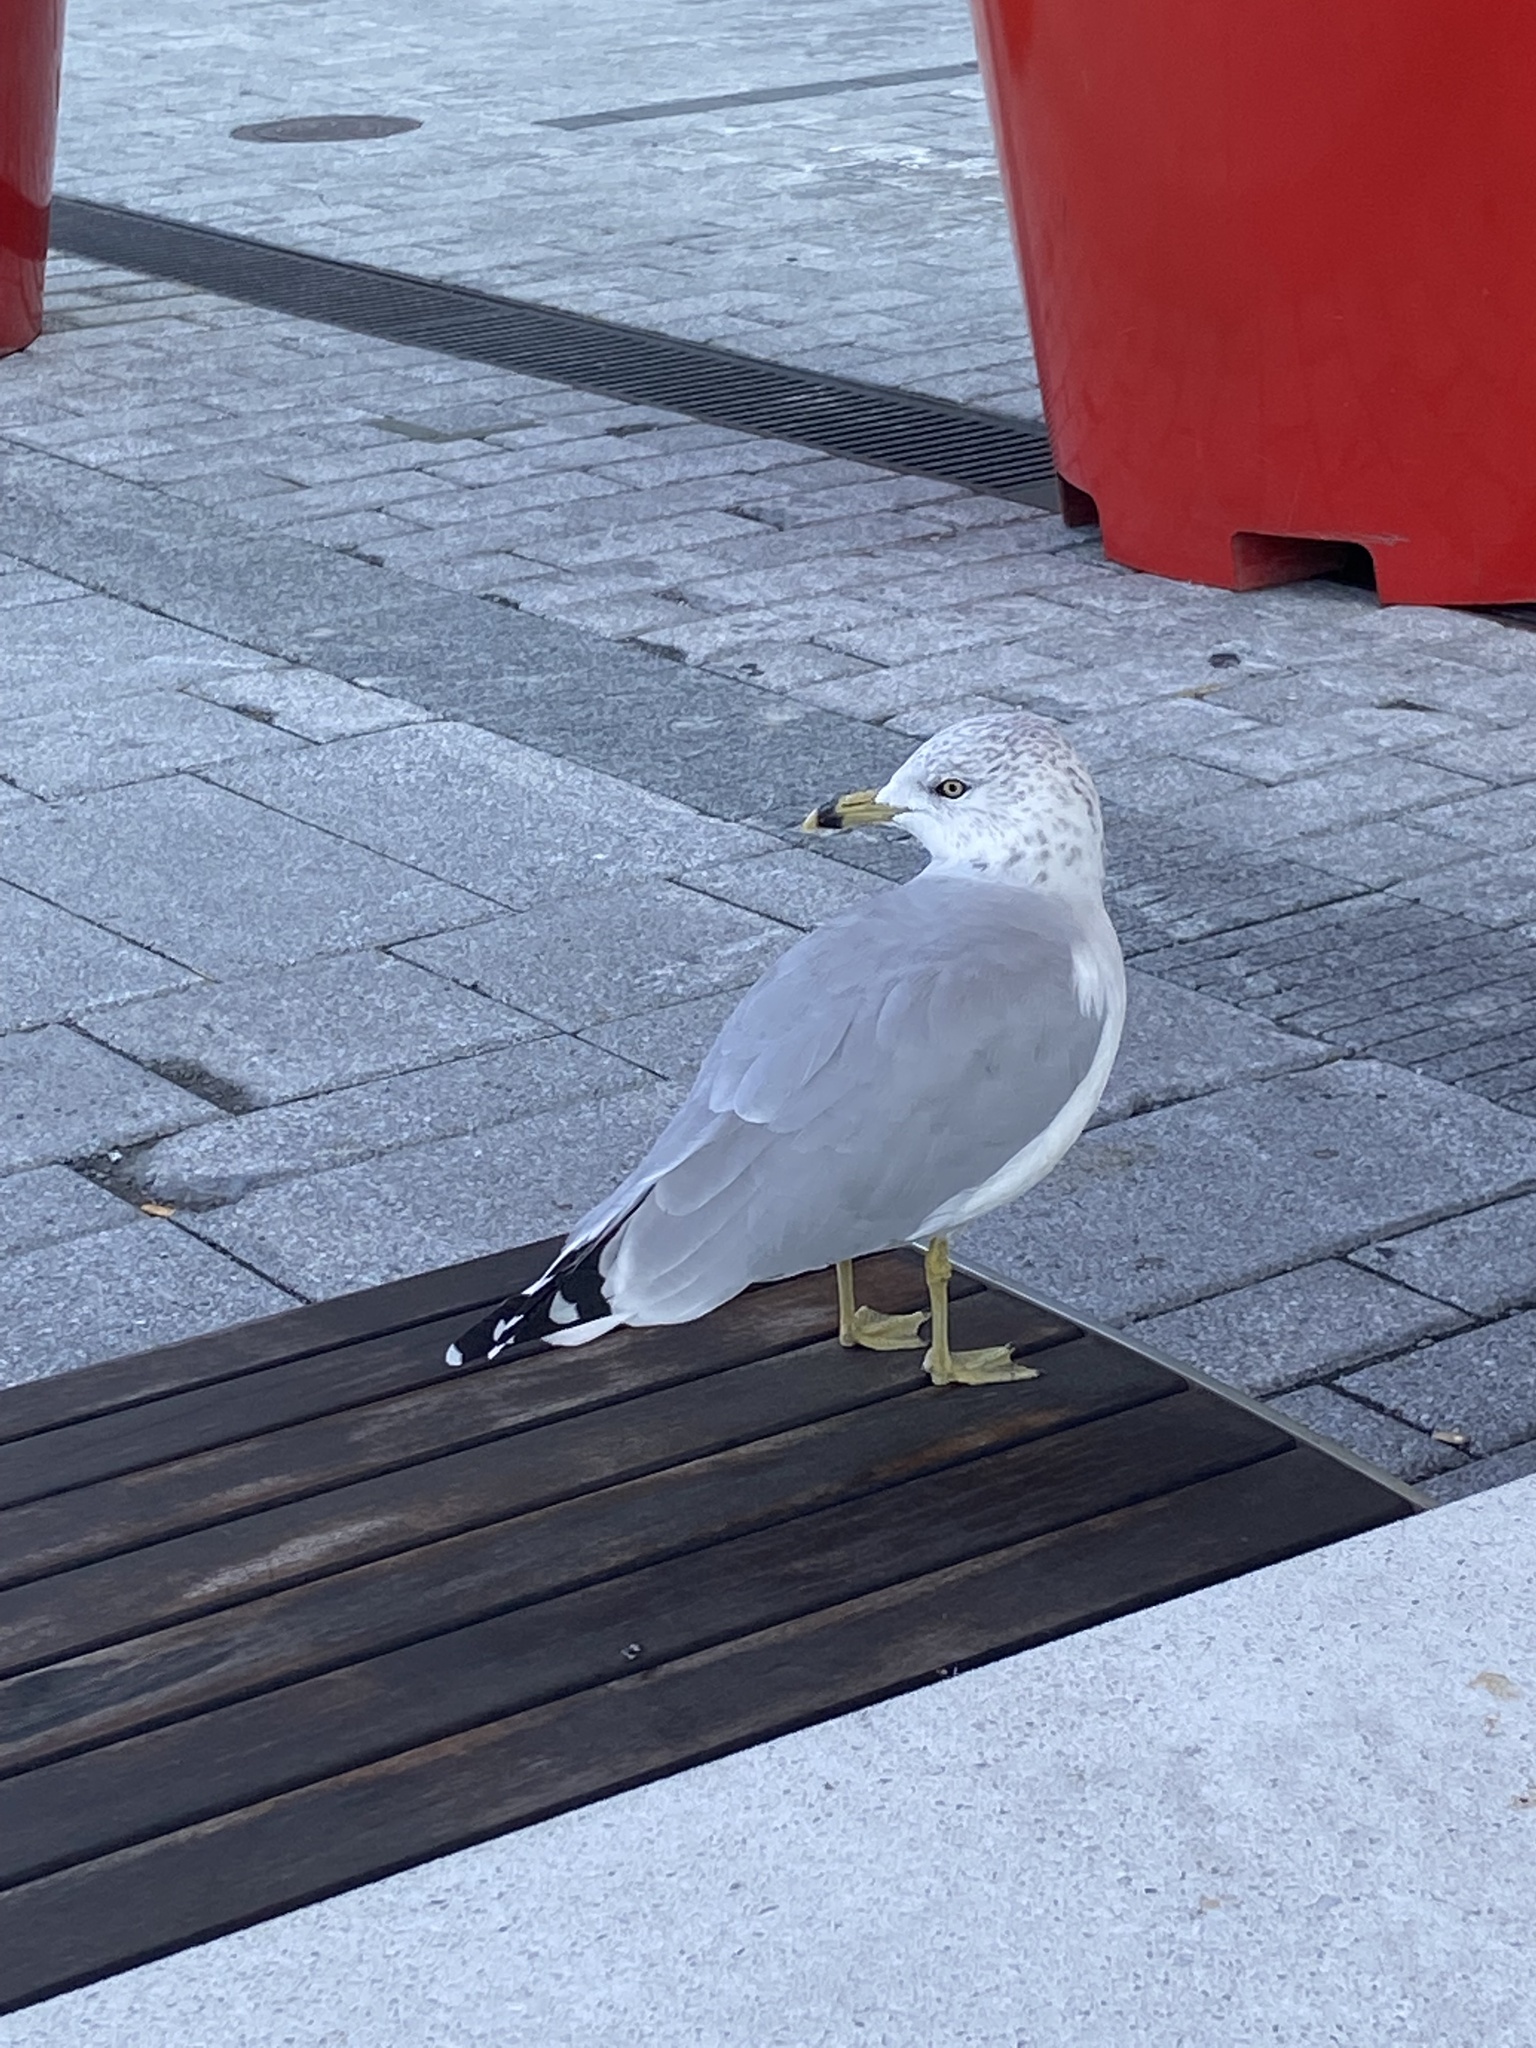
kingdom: Animalia
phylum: Chordata
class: Aves
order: Charadriiformes
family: Laridae
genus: Larus
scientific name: Larus delawarensis
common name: Ring-billed gull
